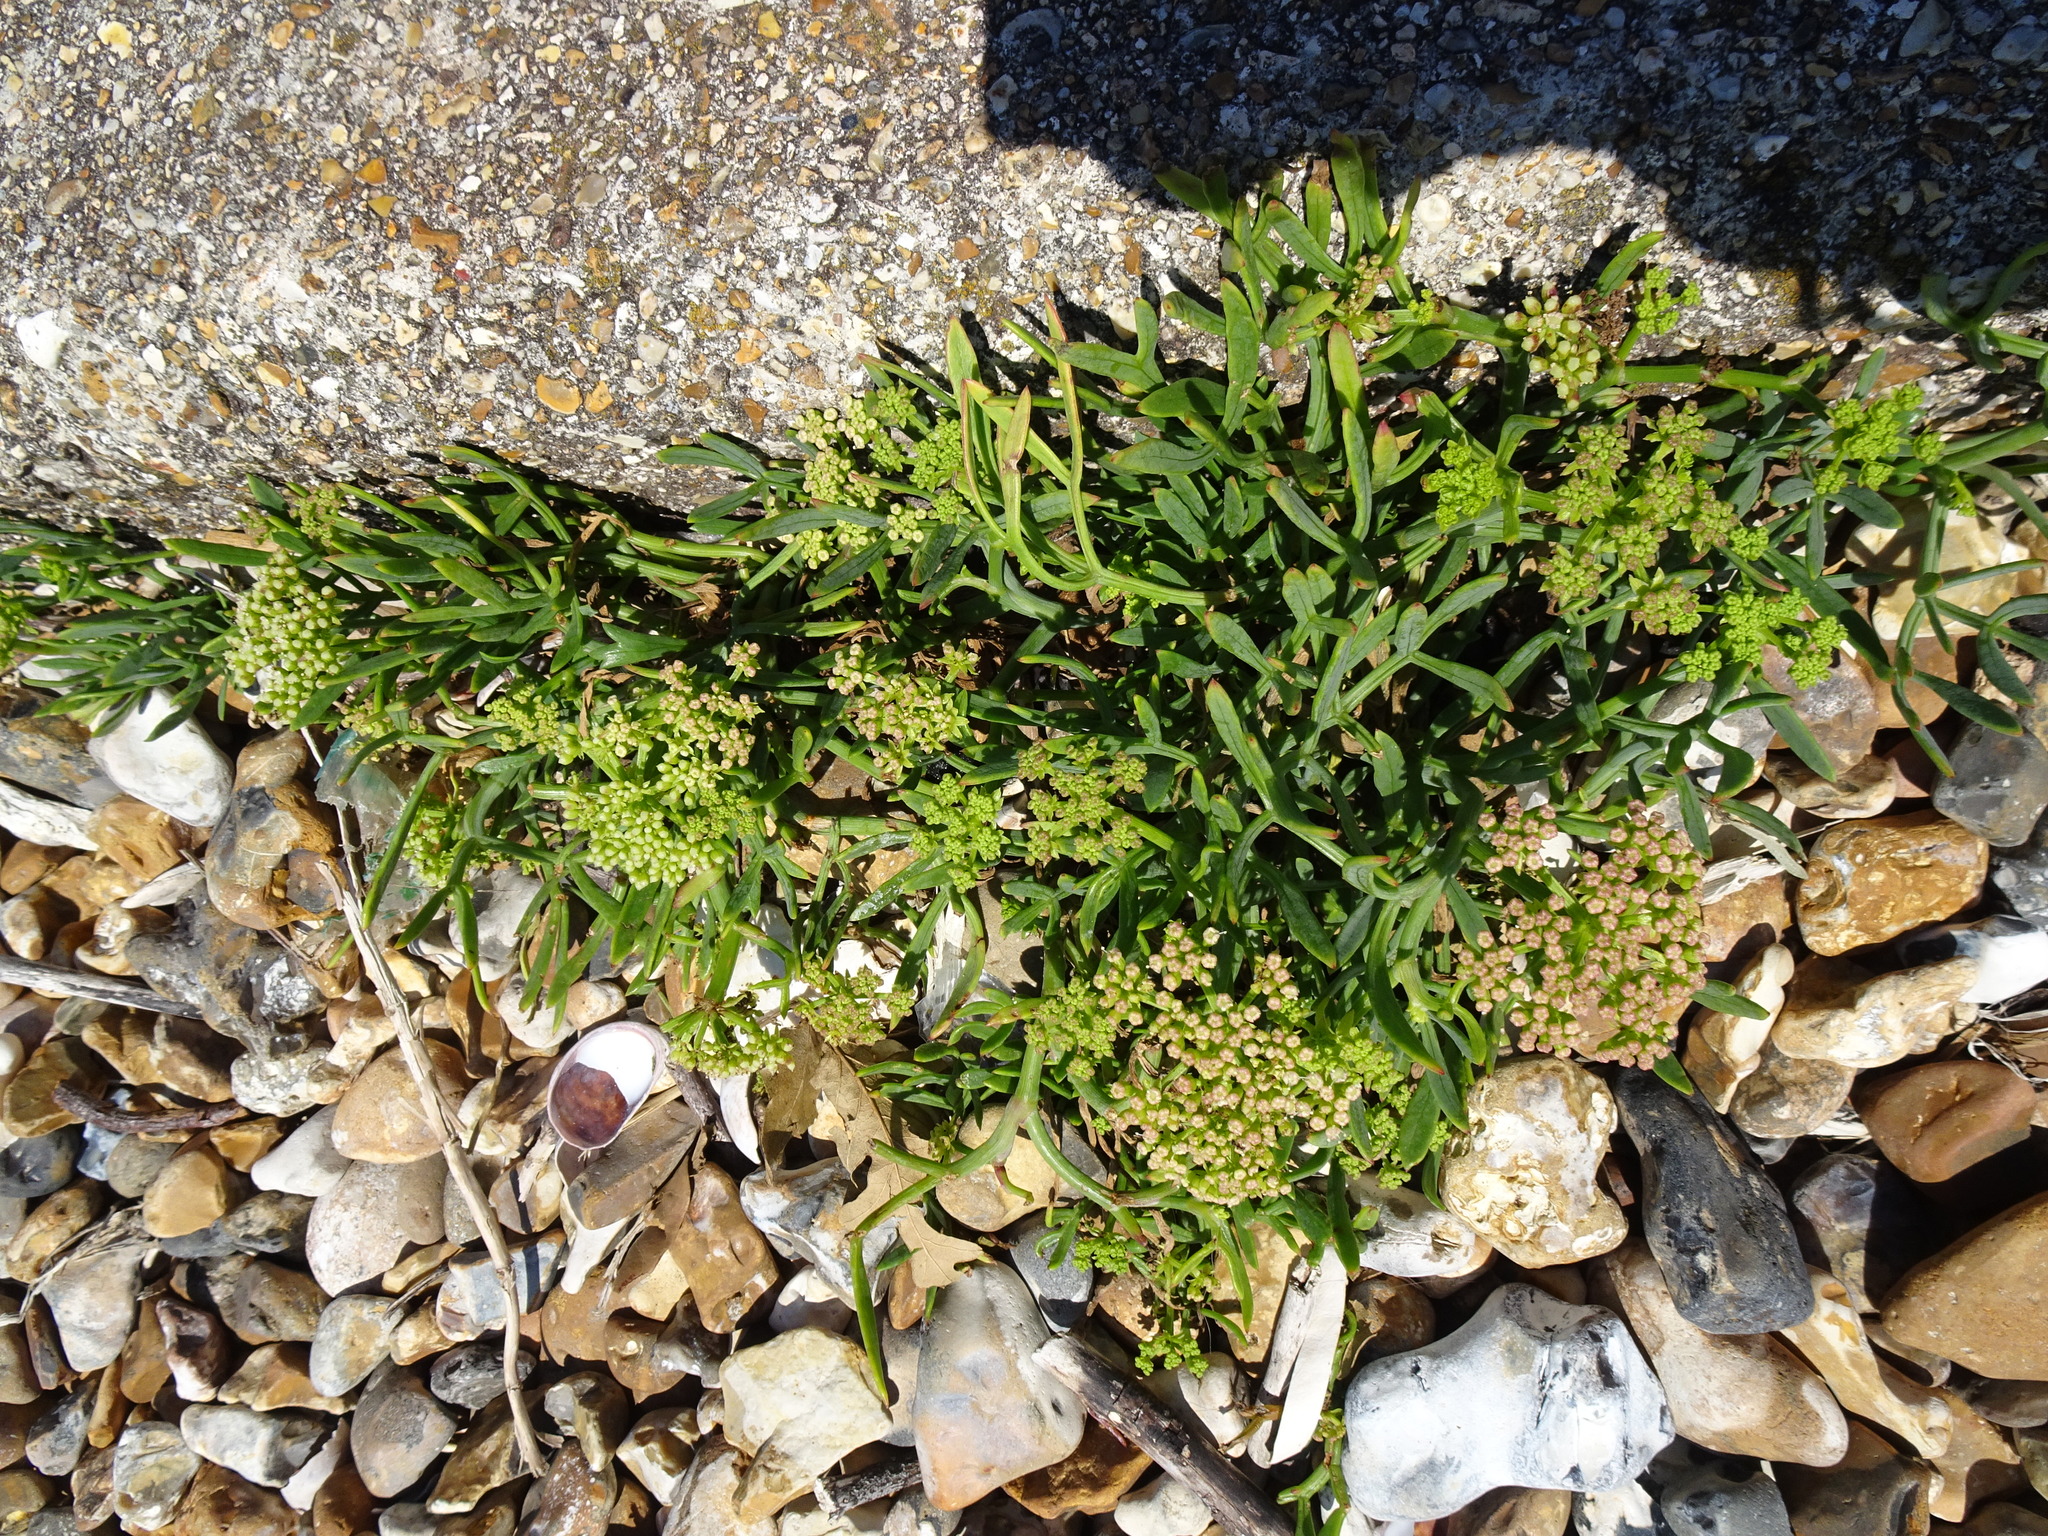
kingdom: Plantae
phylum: Tracheophyta
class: Magnoliopsida
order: Apiales
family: Apiaceae
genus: Crithmum
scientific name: Crithmum maritimum
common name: Rock samphire
